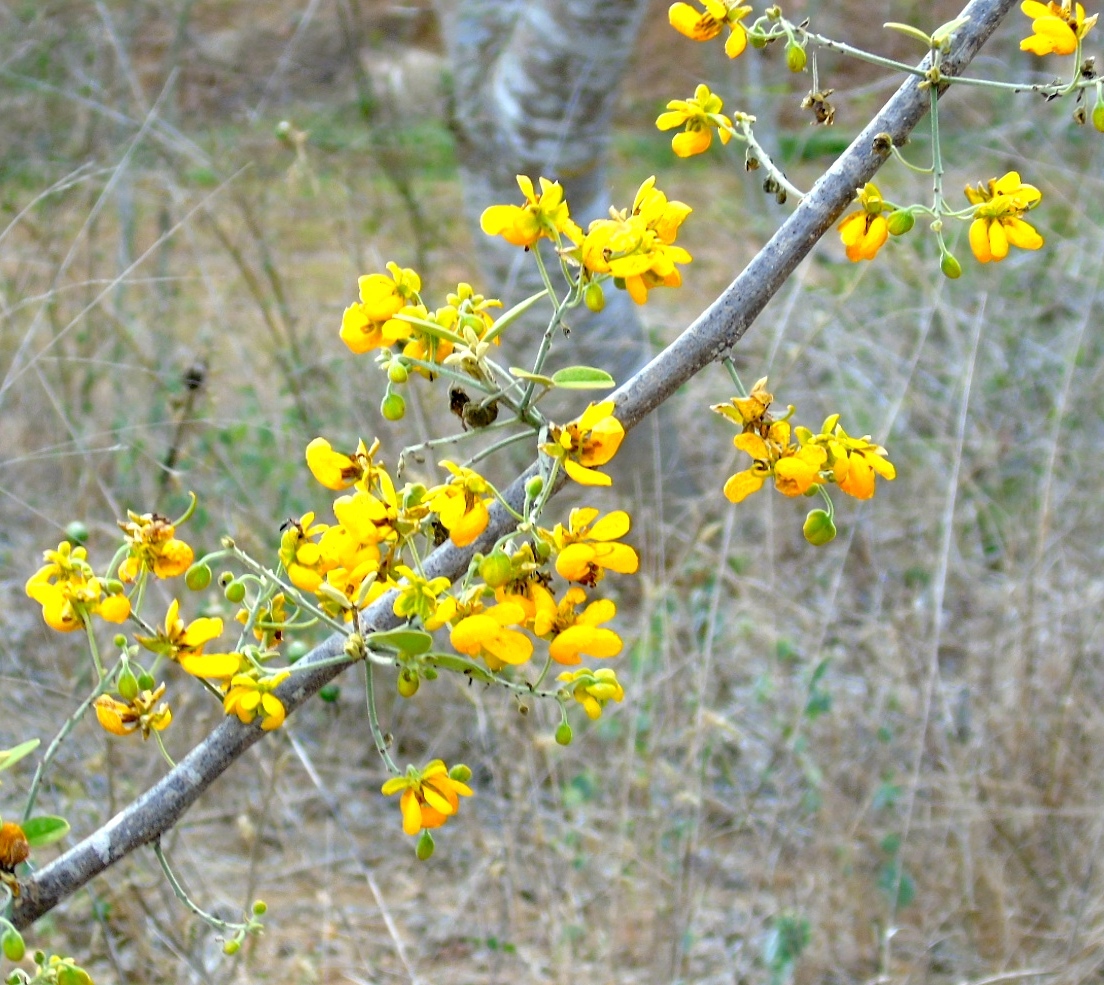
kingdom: Plantae
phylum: Tracheophyta
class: Magnoliopsida
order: Fabales
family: Fabaceae
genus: Senna
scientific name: Senna atomaria
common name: Flor de san jose
